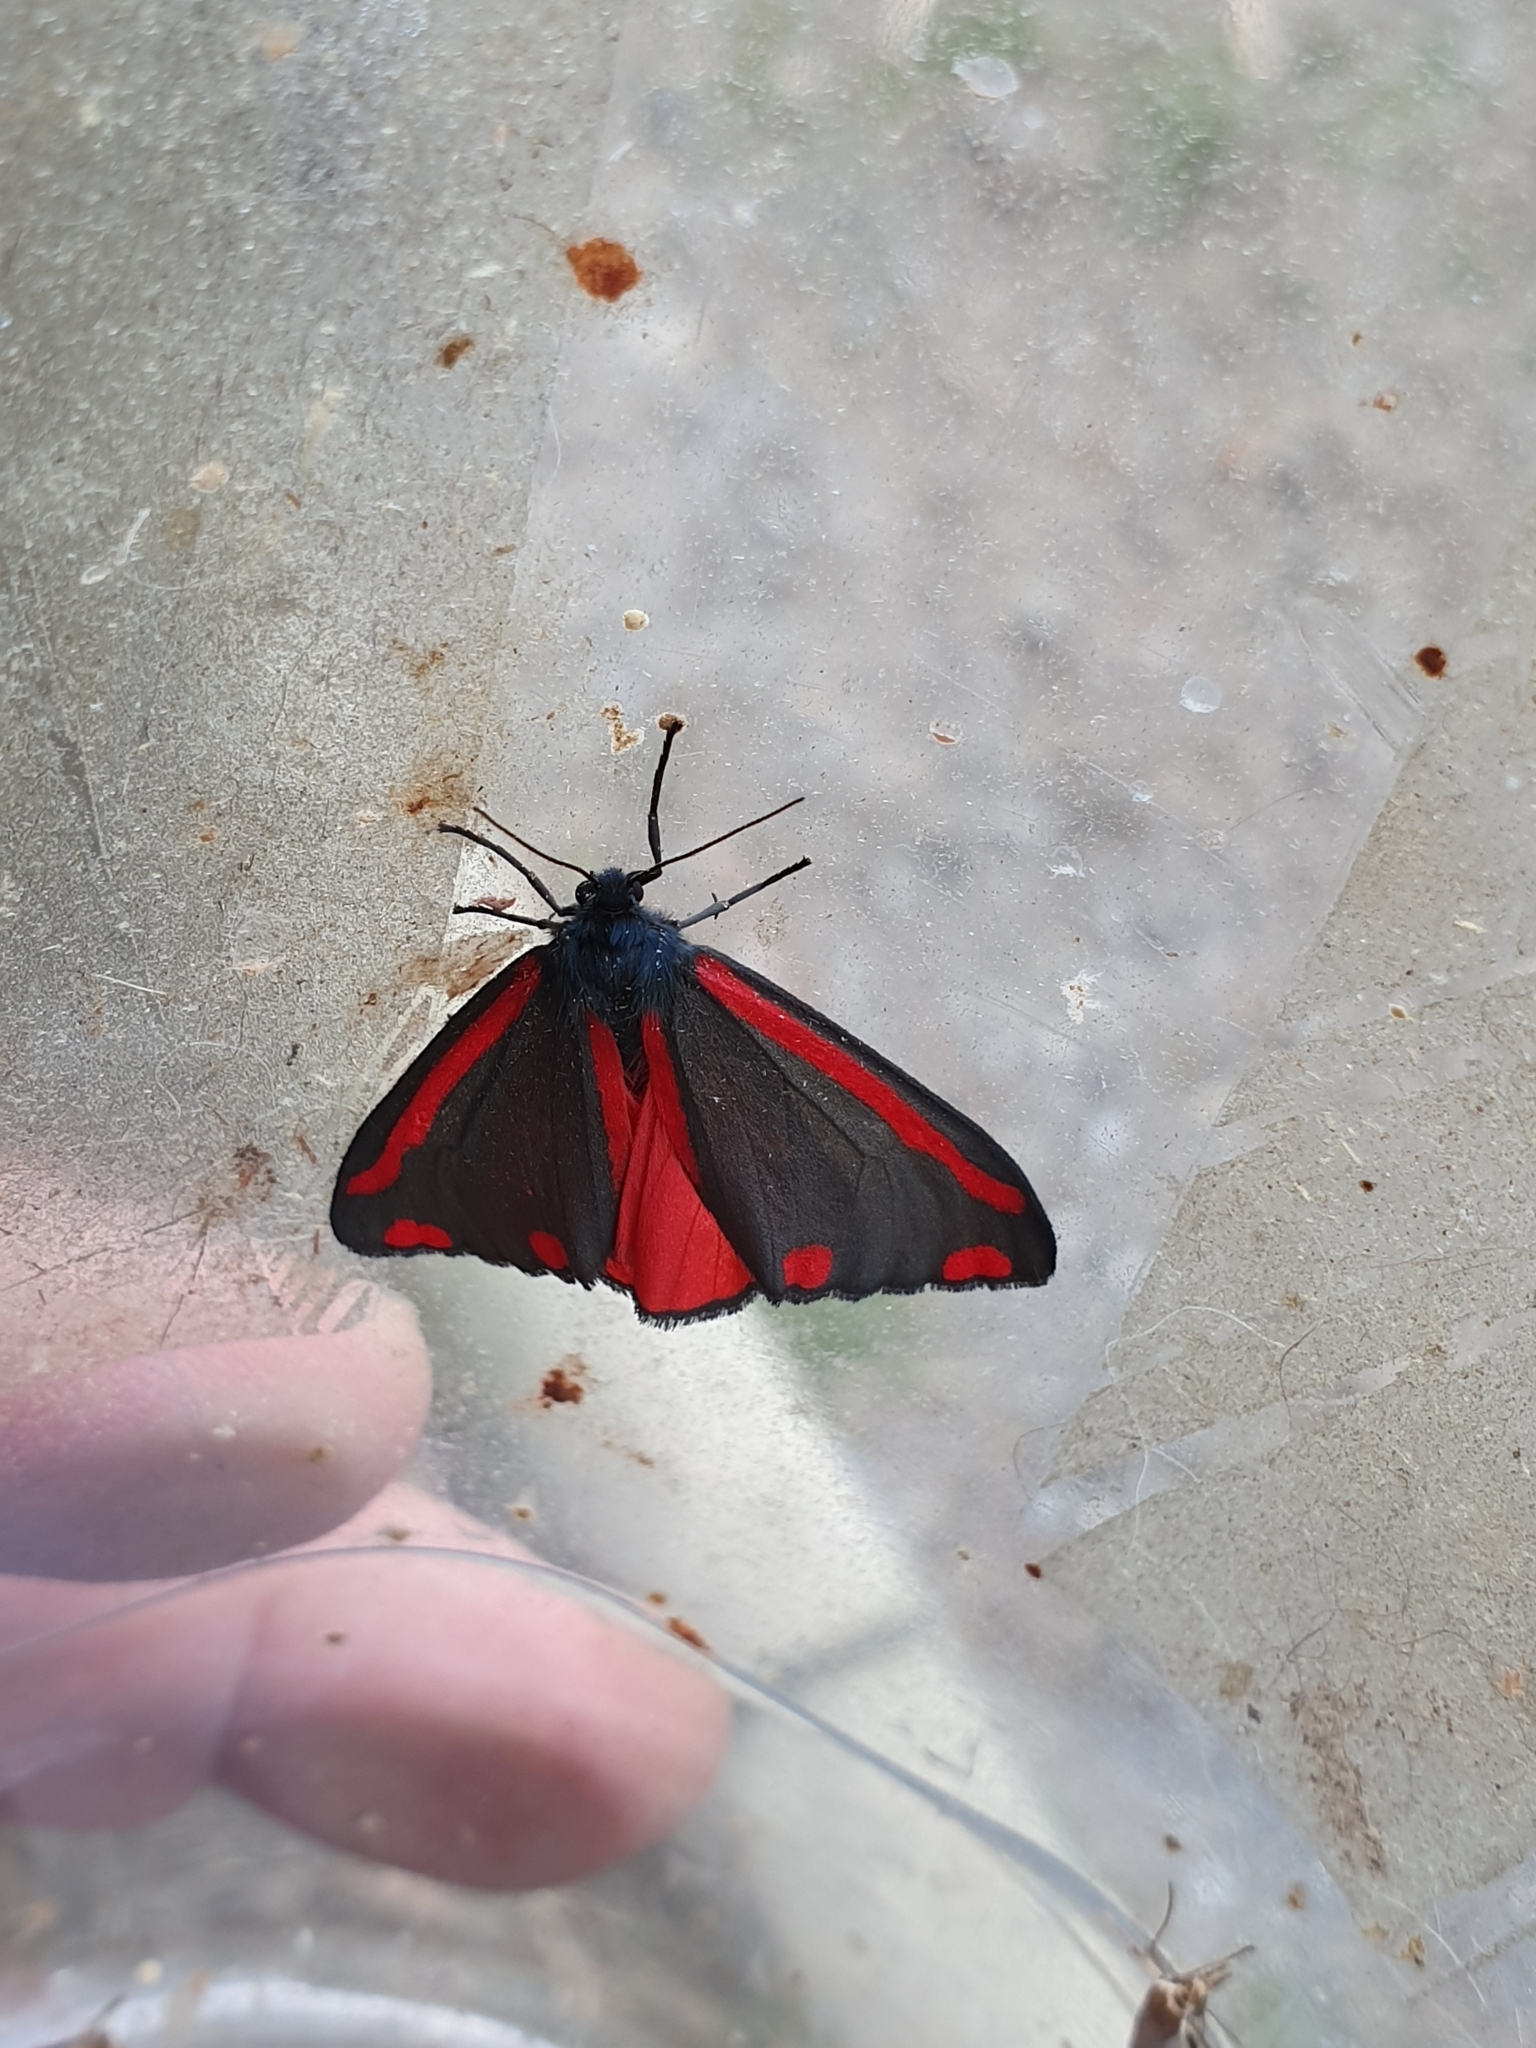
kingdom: Animalia
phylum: Arthropoda
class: Insecta
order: Lepidoptera
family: Erebidae
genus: Tyria
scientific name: Tyria jacobaeae
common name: Cinnabar
